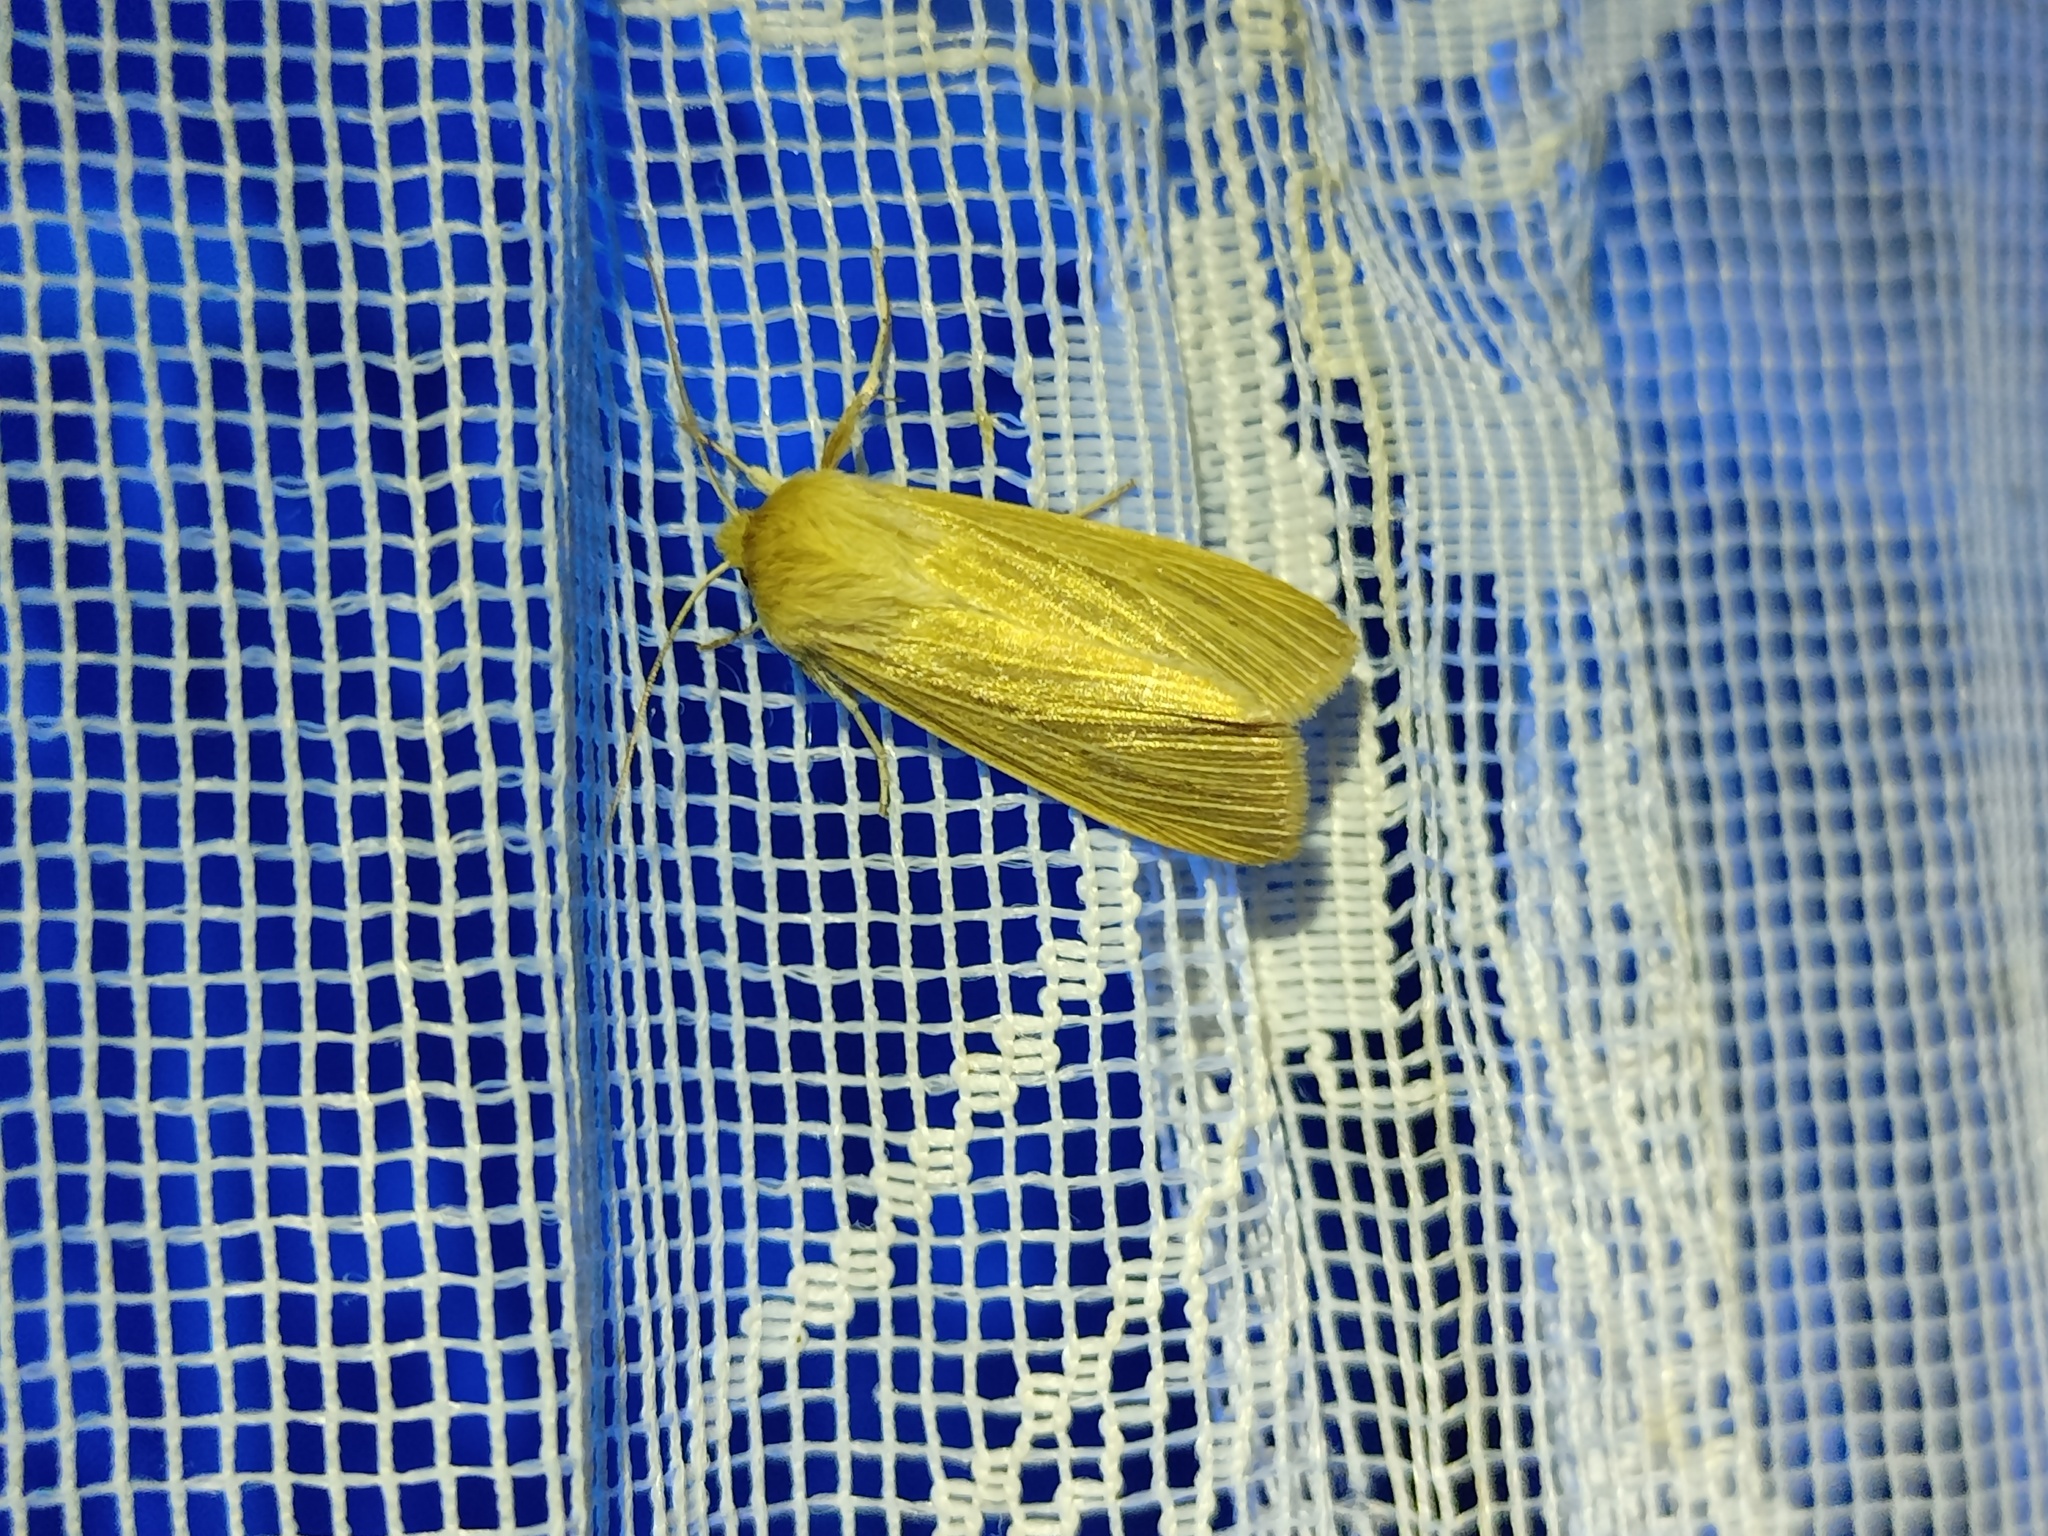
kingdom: Animalia
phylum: Arthropoda
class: Insecta
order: Lepidoptera
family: Noctuidae
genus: Mythimna
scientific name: Mythimna pallens
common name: Common wainscot
